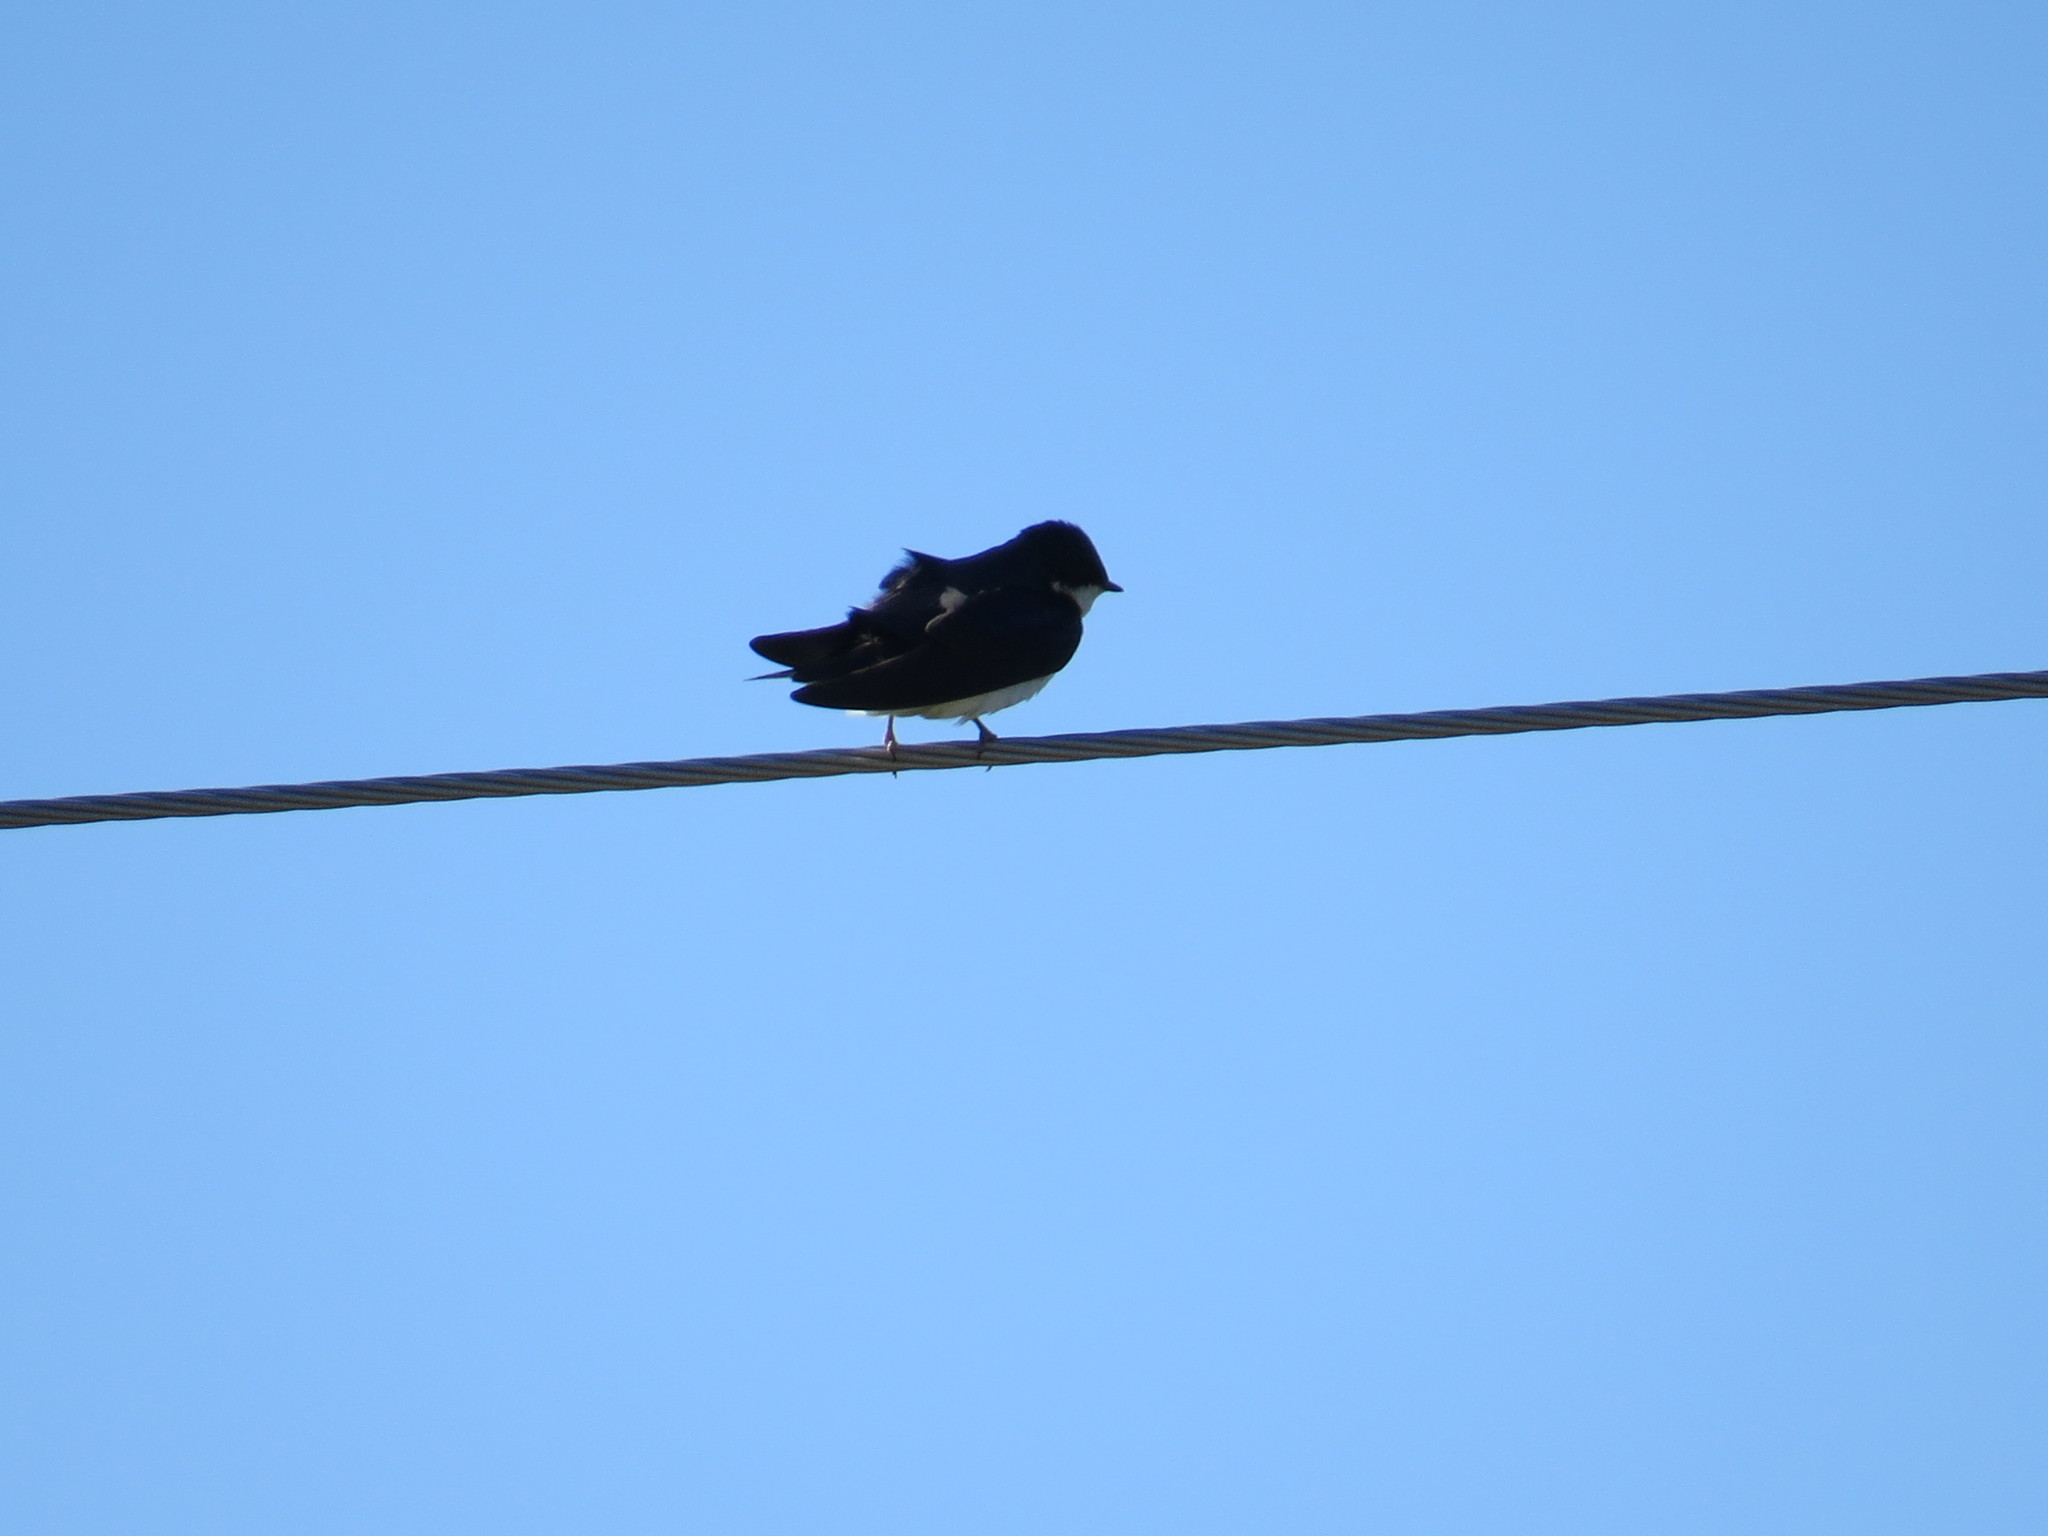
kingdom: Animalia
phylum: Chordata
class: Aves
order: Passeriformes
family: Hirundinidae
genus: Tachycineta
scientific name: Tachycineta bicolor
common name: Tree swallow
